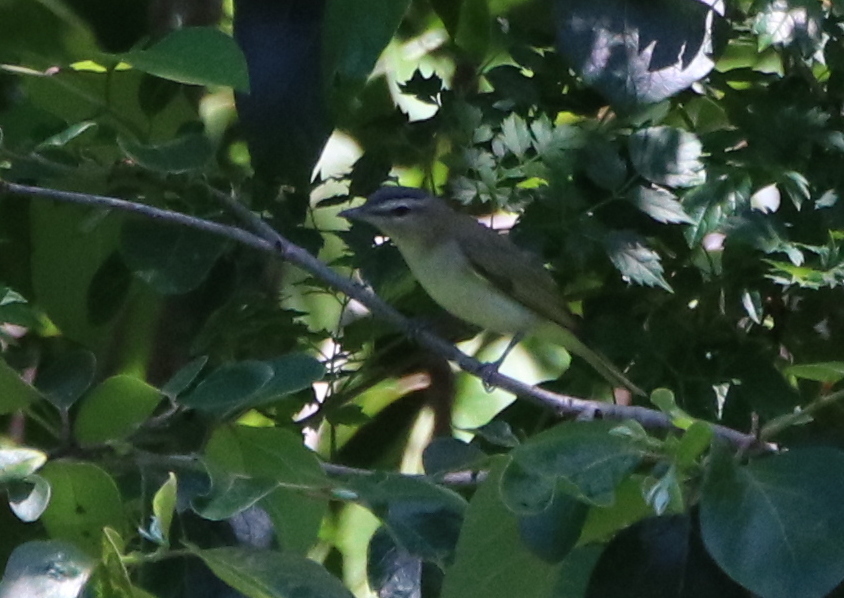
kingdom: Animalia
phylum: Chordata
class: Aves
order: Passeriformes
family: Vireonidae
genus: Vireo
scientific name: Vireo olivaceus
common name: Red-eyed vireo
